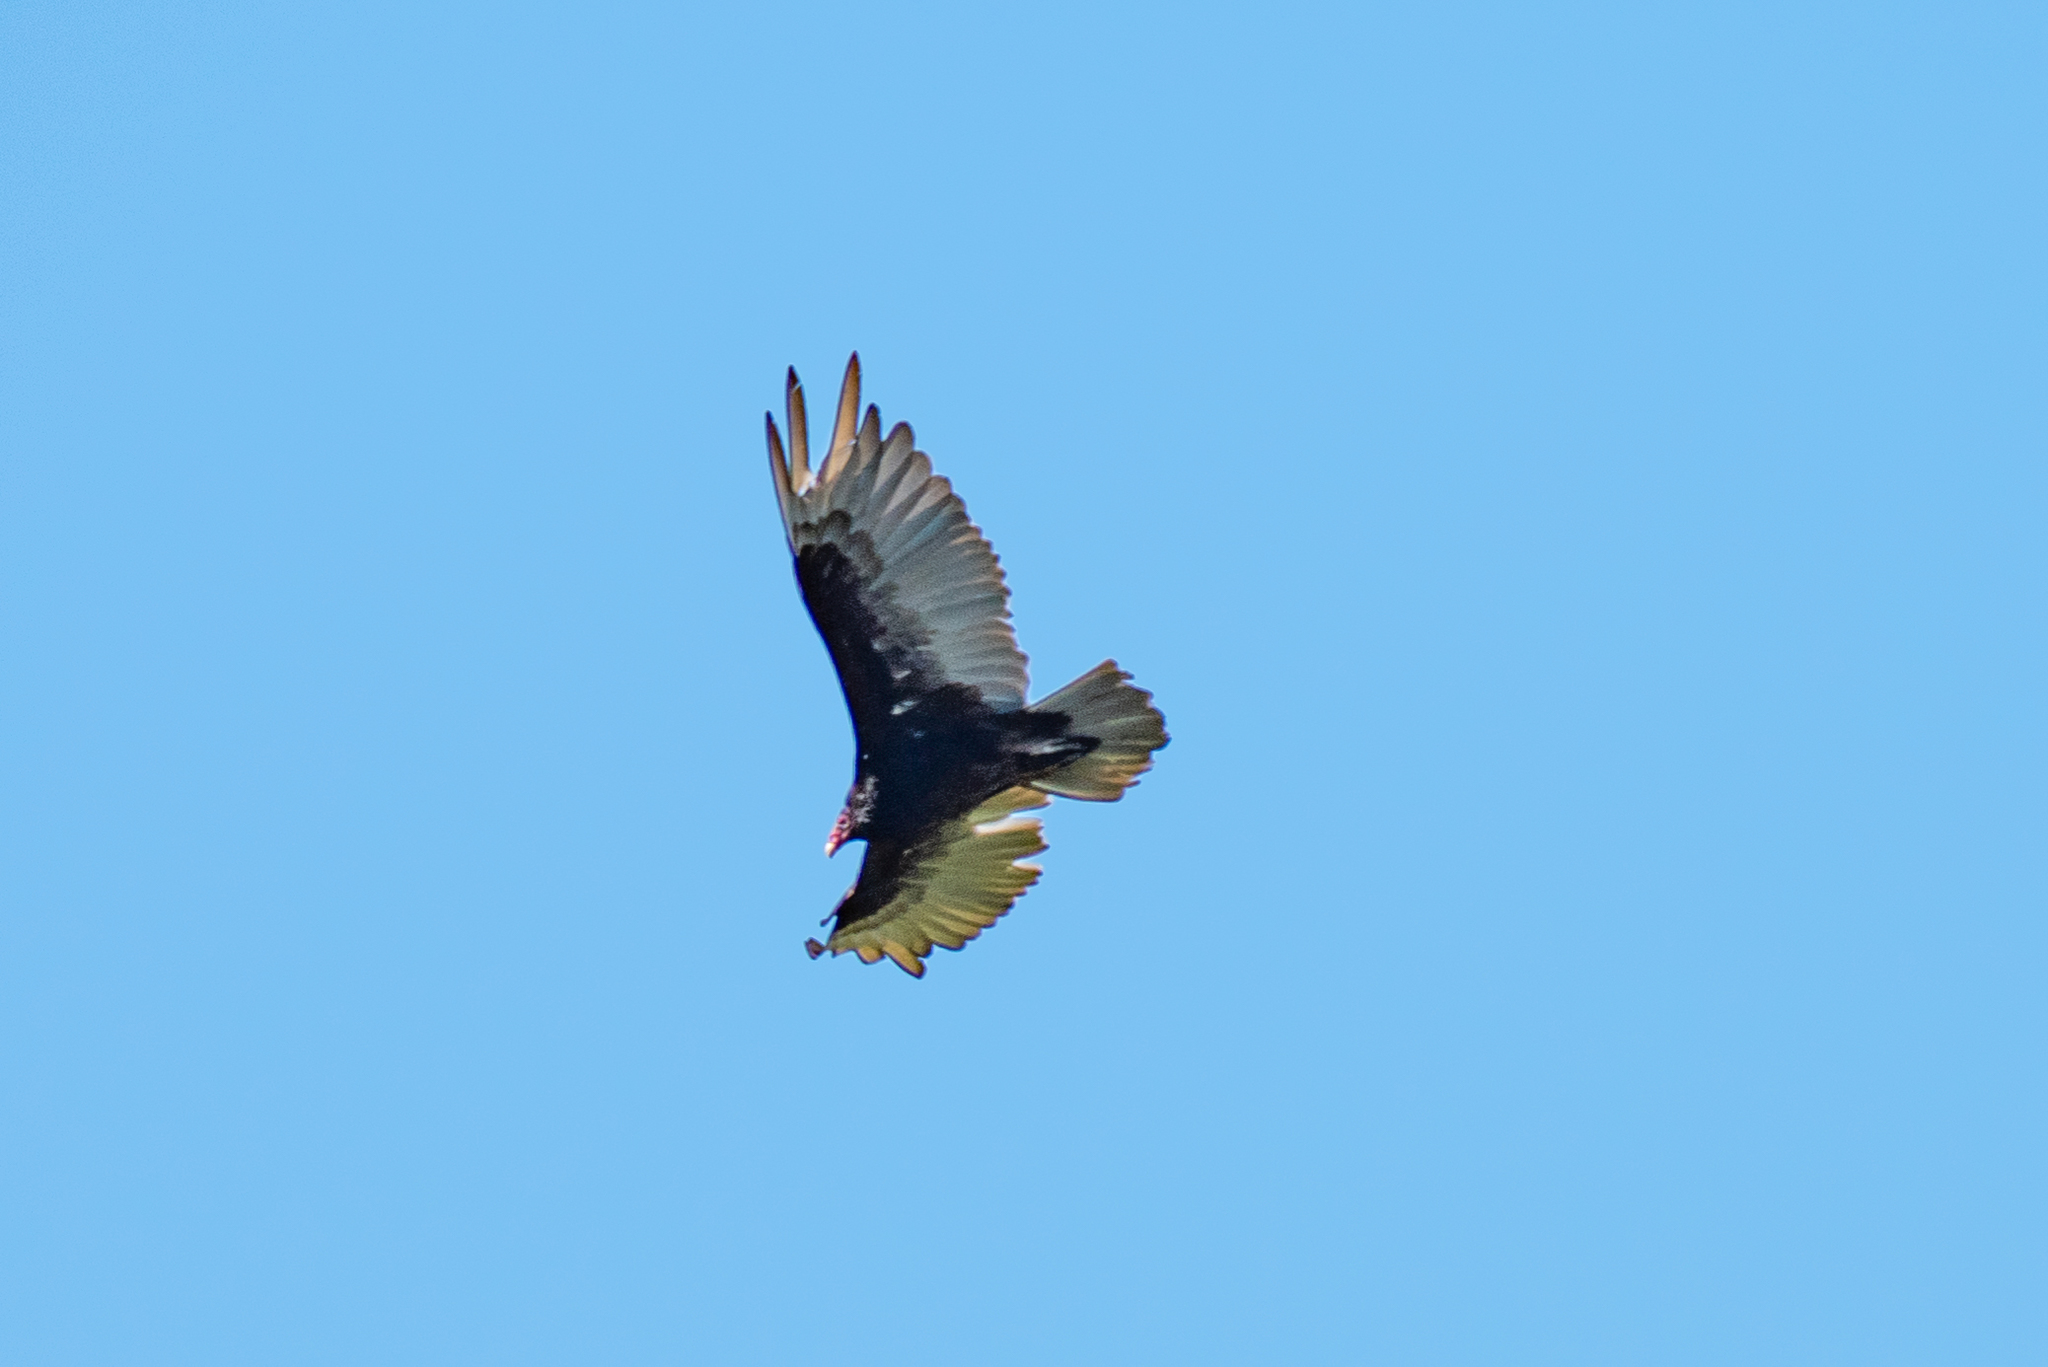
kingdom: Animalia
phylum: Chordata
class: Aves
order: Accipitriformes
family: Cathartidae
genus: Cathartes
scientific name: Cathartes aura
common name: Turkey vulture
